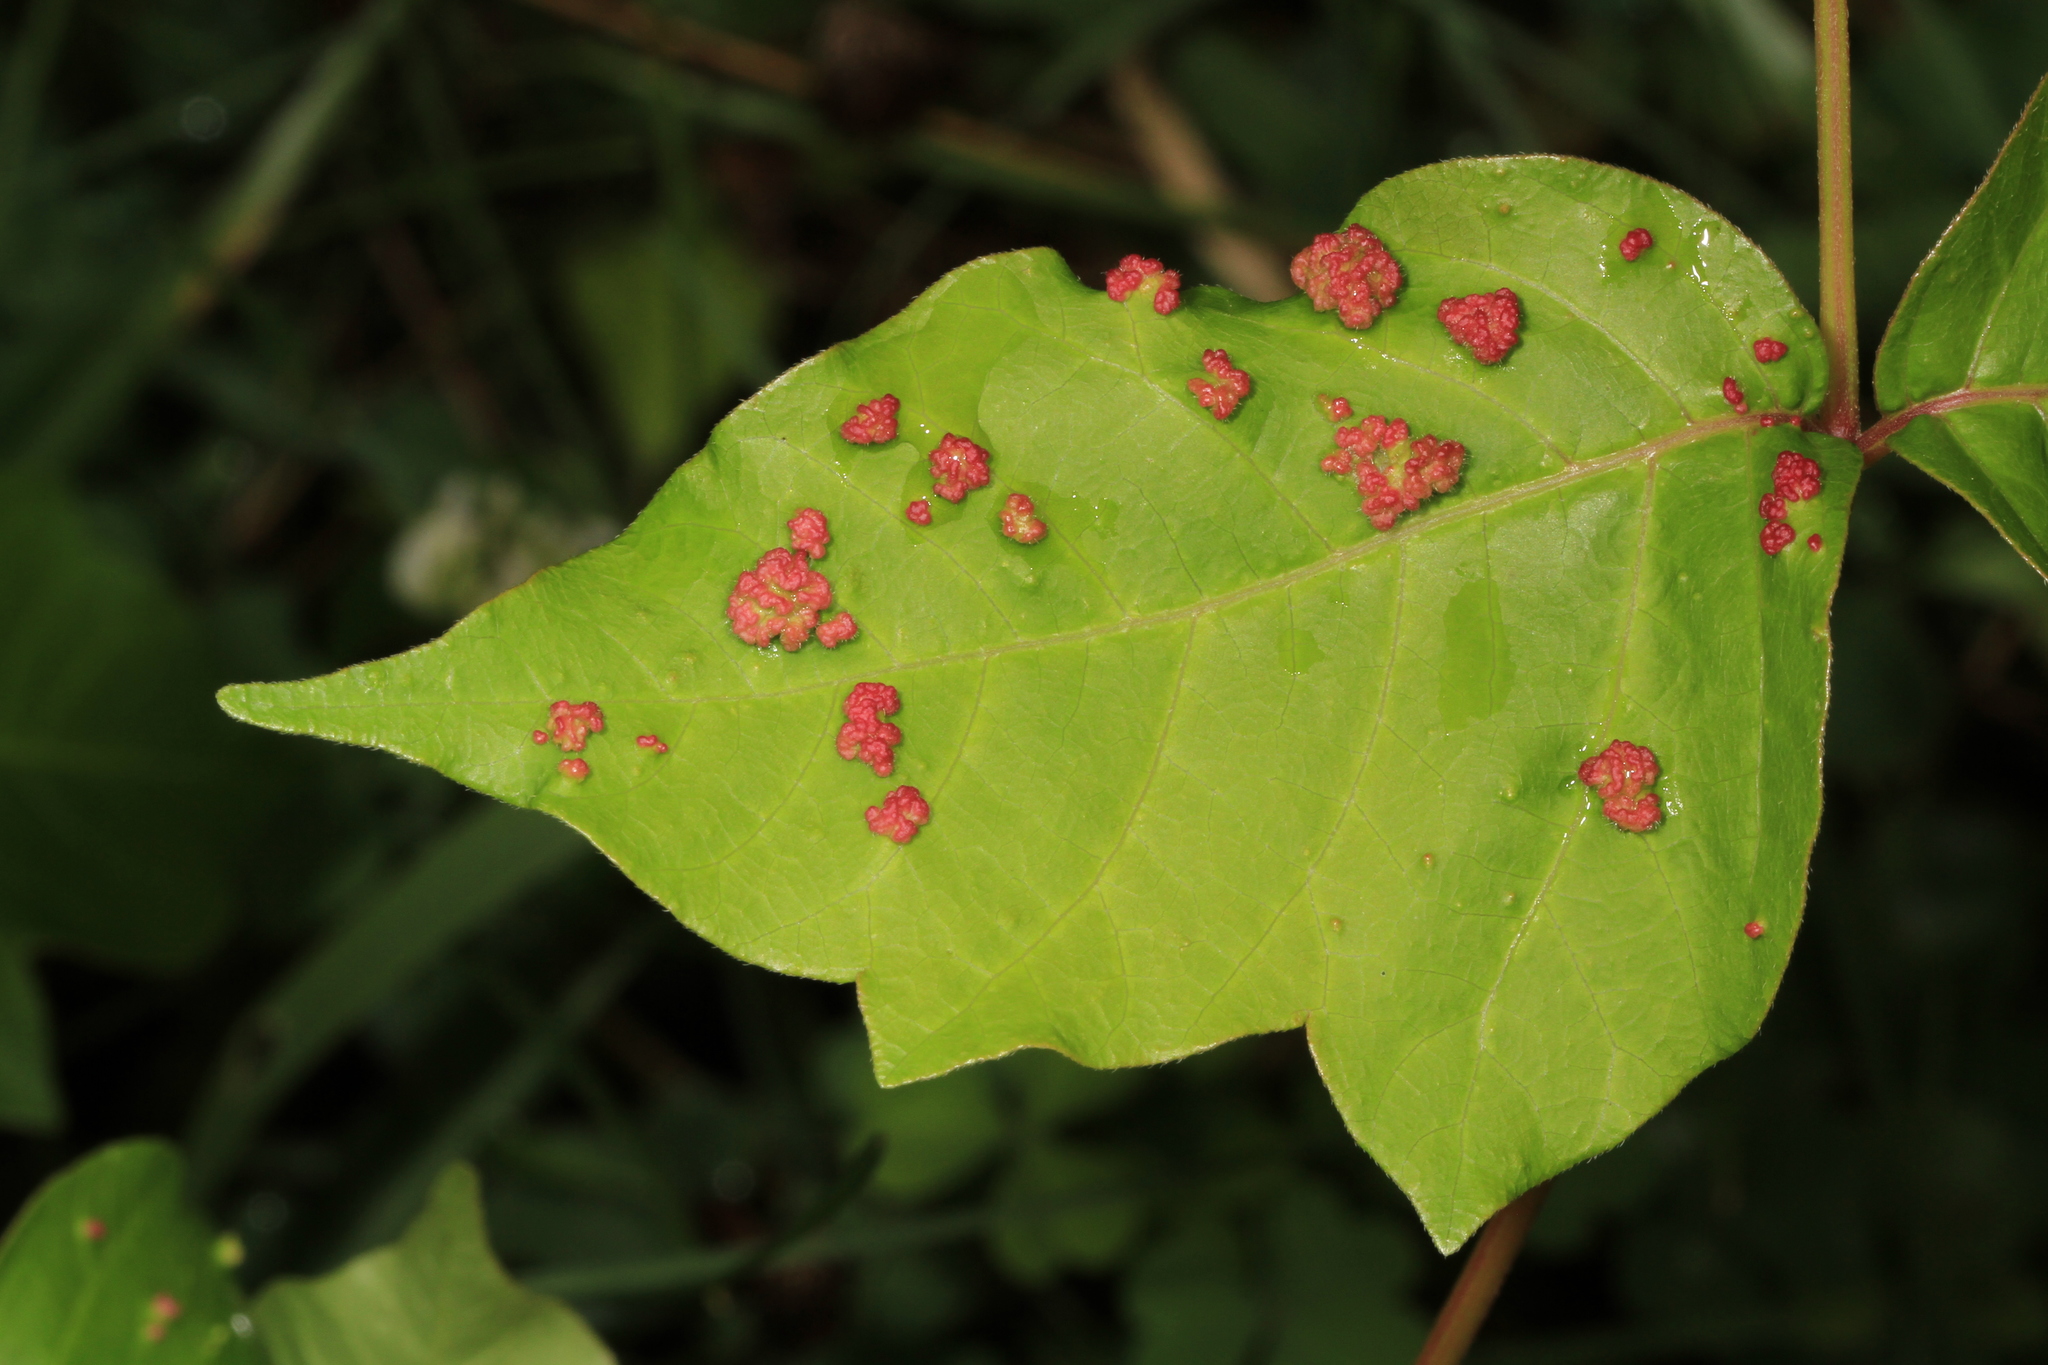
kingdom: Animalia
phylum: Arthropoda
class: Arachnida
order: Trombidiformes
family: Eriophyidae
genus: Aculops
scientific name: Aculops
